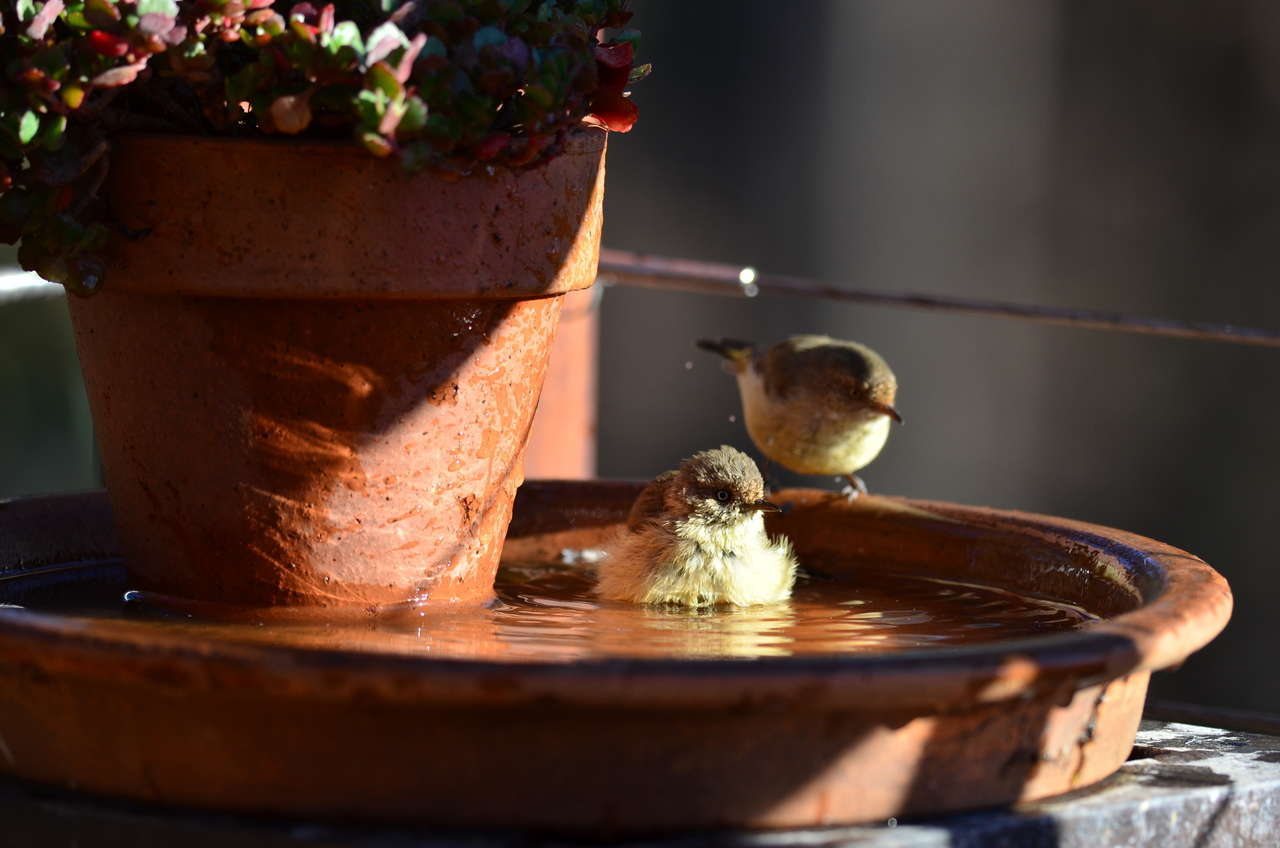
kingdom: Animalia
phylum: Chordata
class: Aves
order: Passeriformes
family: Acanthizidae
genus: Acanthiza
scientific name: Acanthiza reguloides
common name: Buff-rumped thornbill
